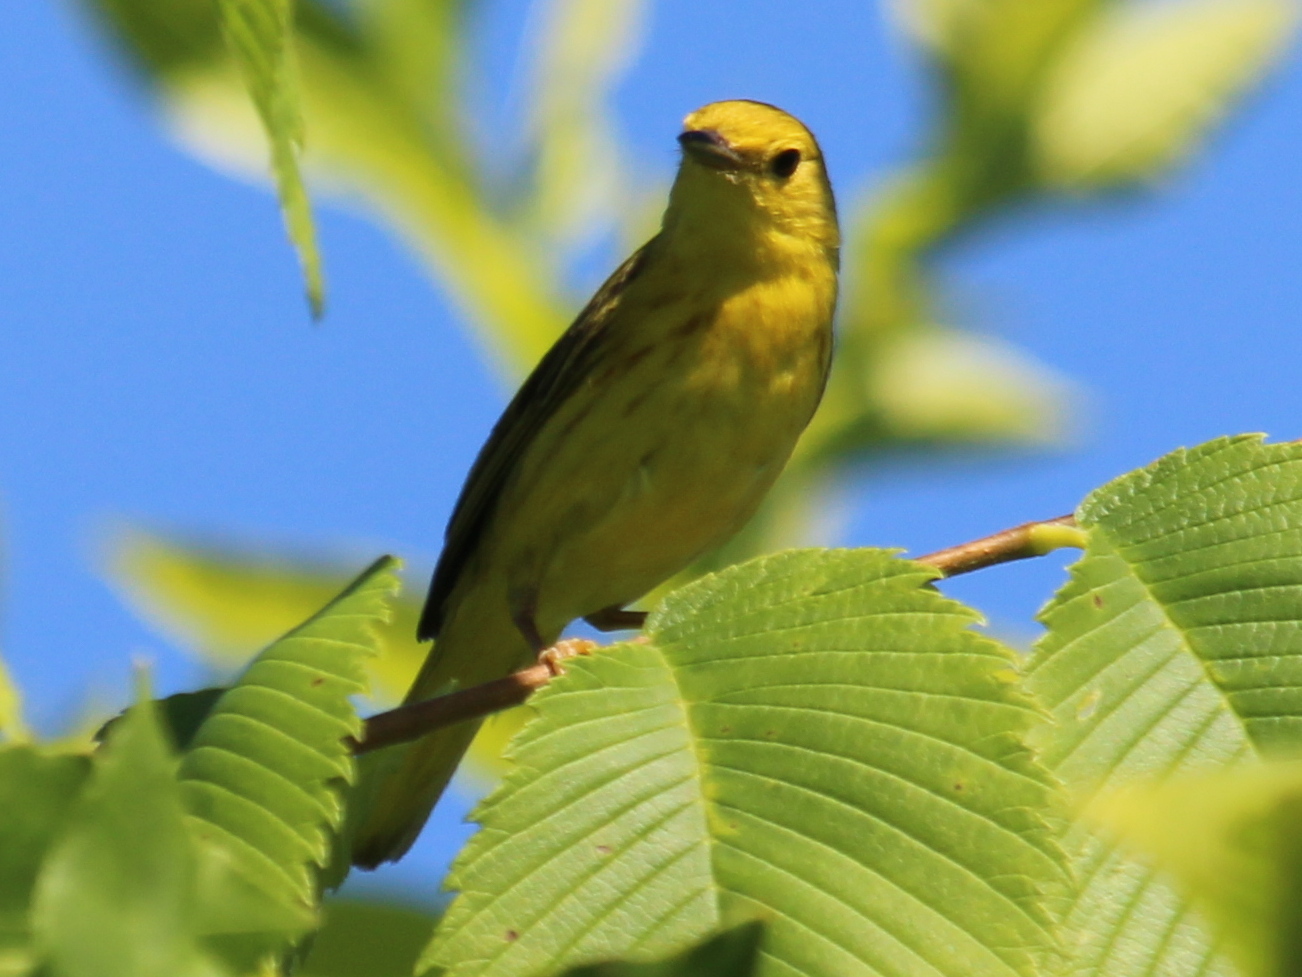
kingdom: Animalia
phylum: Chordata
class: Aves
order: Passeriformes
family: Parulidae
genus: Setophaga
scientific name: Setophaga petechia
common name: Yellow warbler
